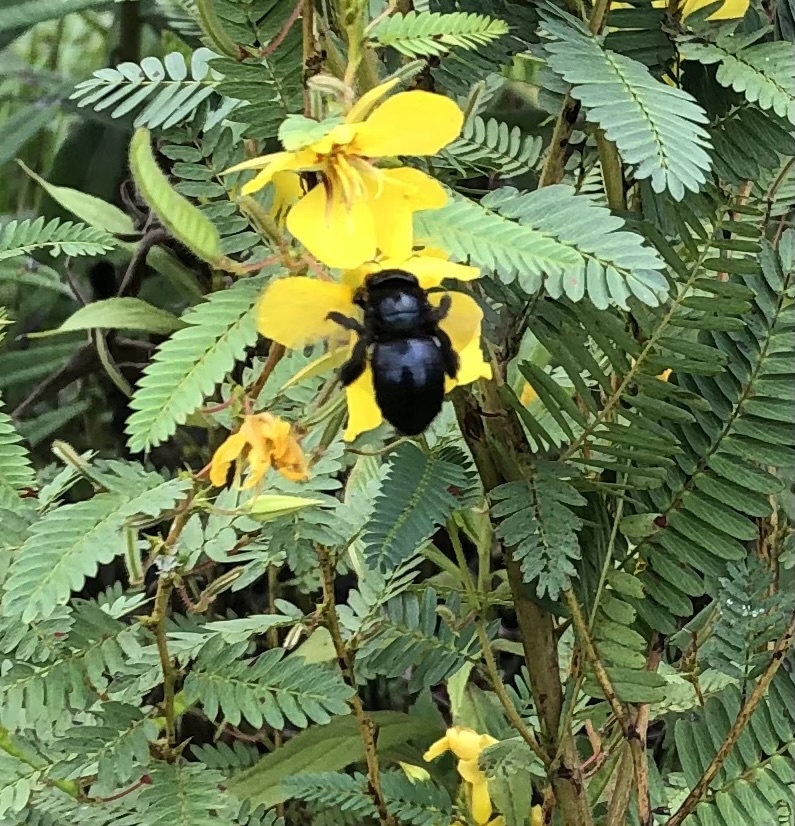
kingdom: Animalia
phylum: Arthropoda
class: Insecta
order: Hymenoptera
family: Apidae
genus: Xylocopa
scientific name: Xylocopa micans
